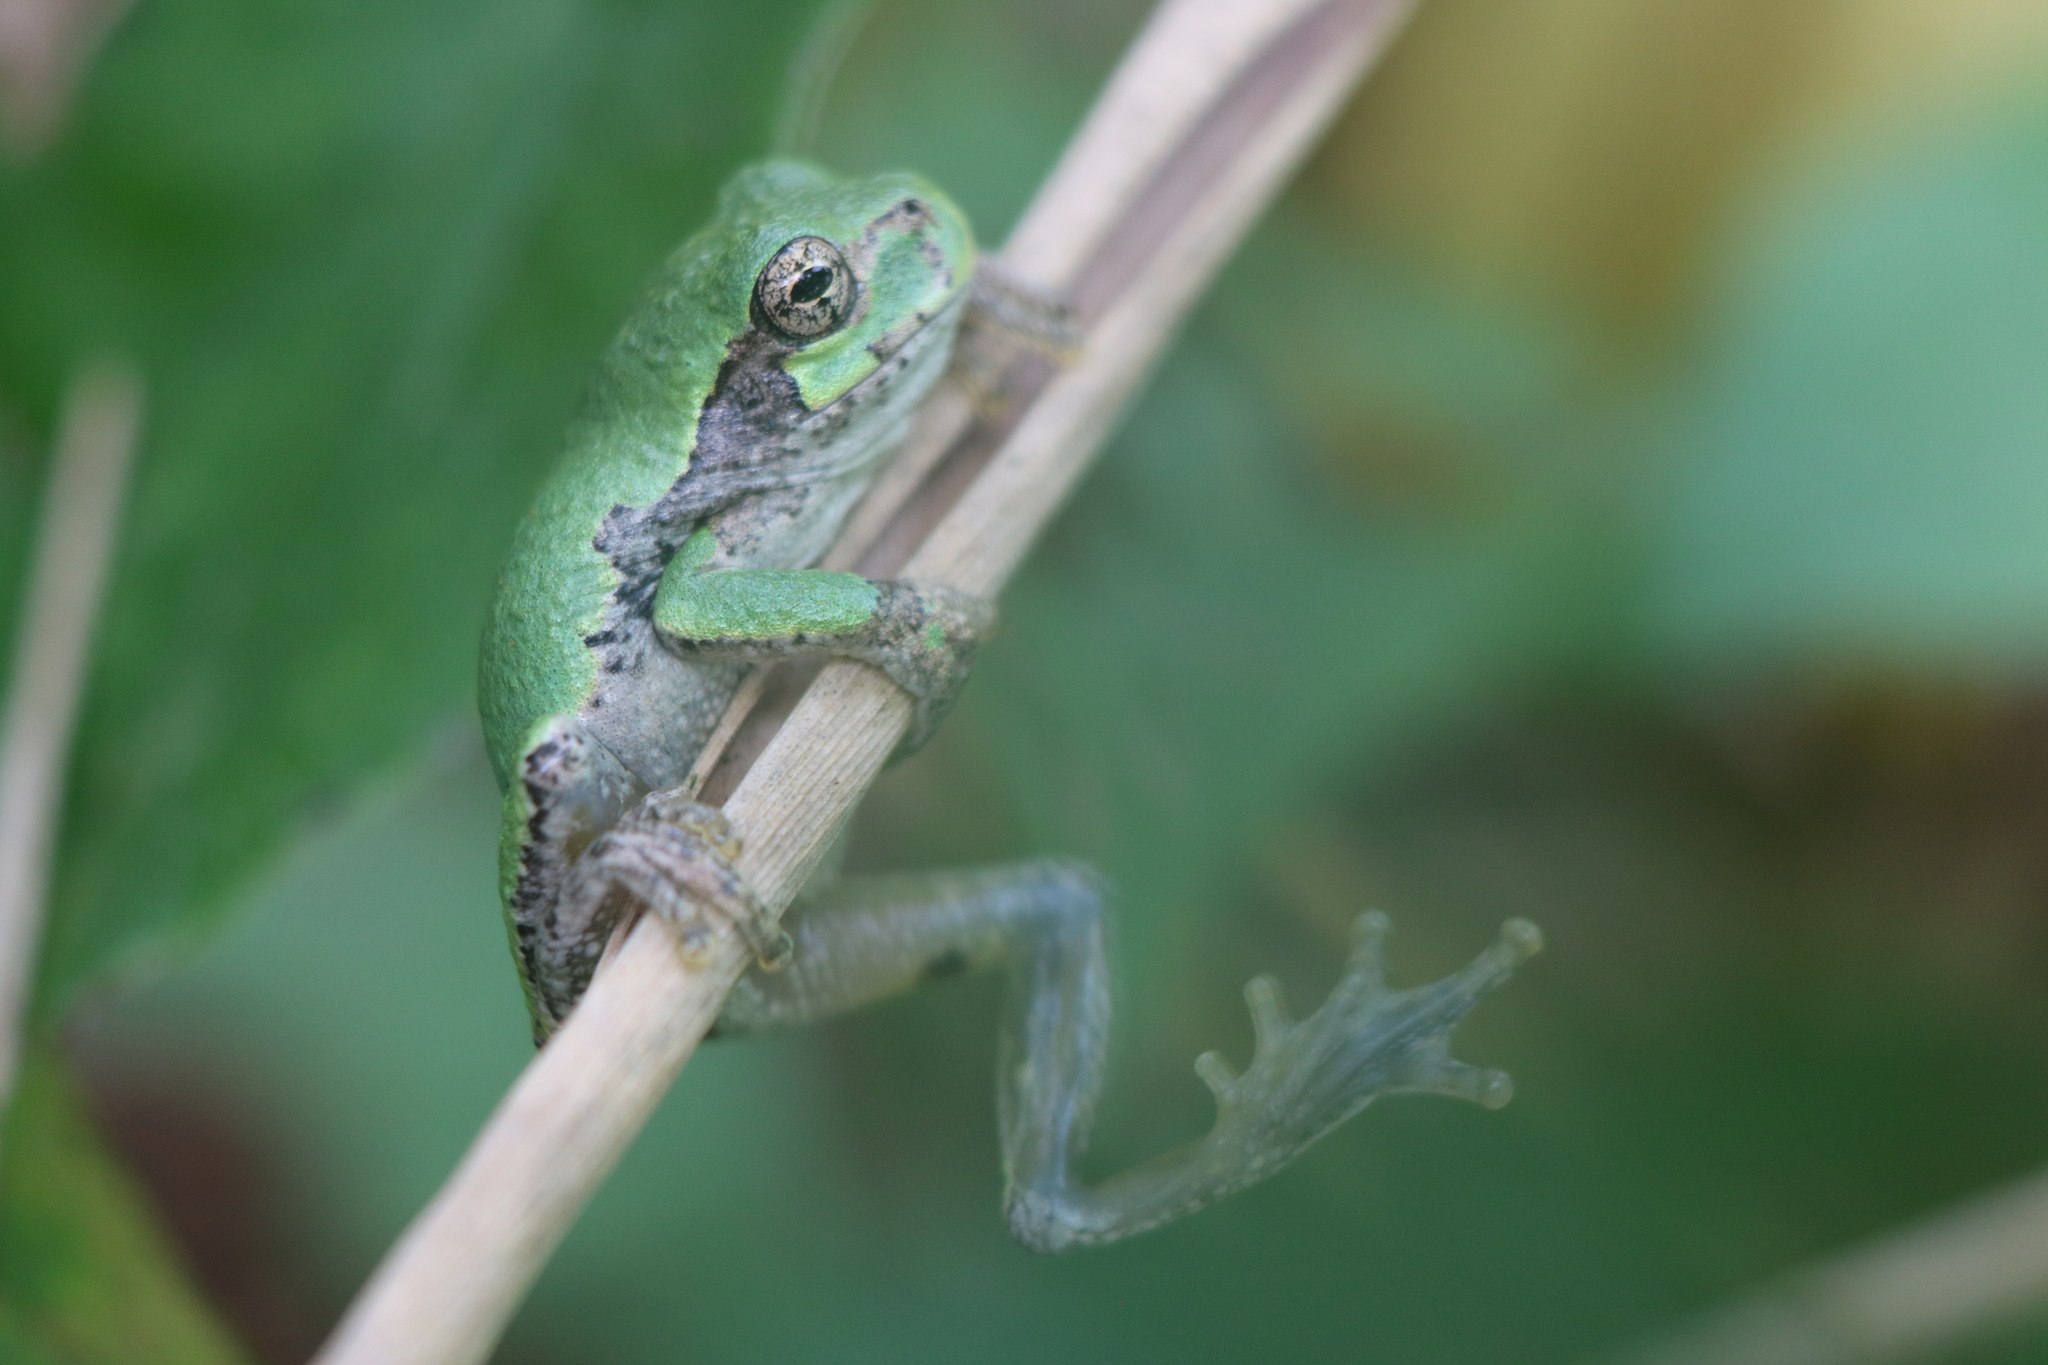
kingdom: Animalia
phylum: Chordata
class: Amphibia
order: Anura
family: Hylidae
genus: Dryophytes
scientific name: Dryophytes versicolor
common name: Gray treefrog
